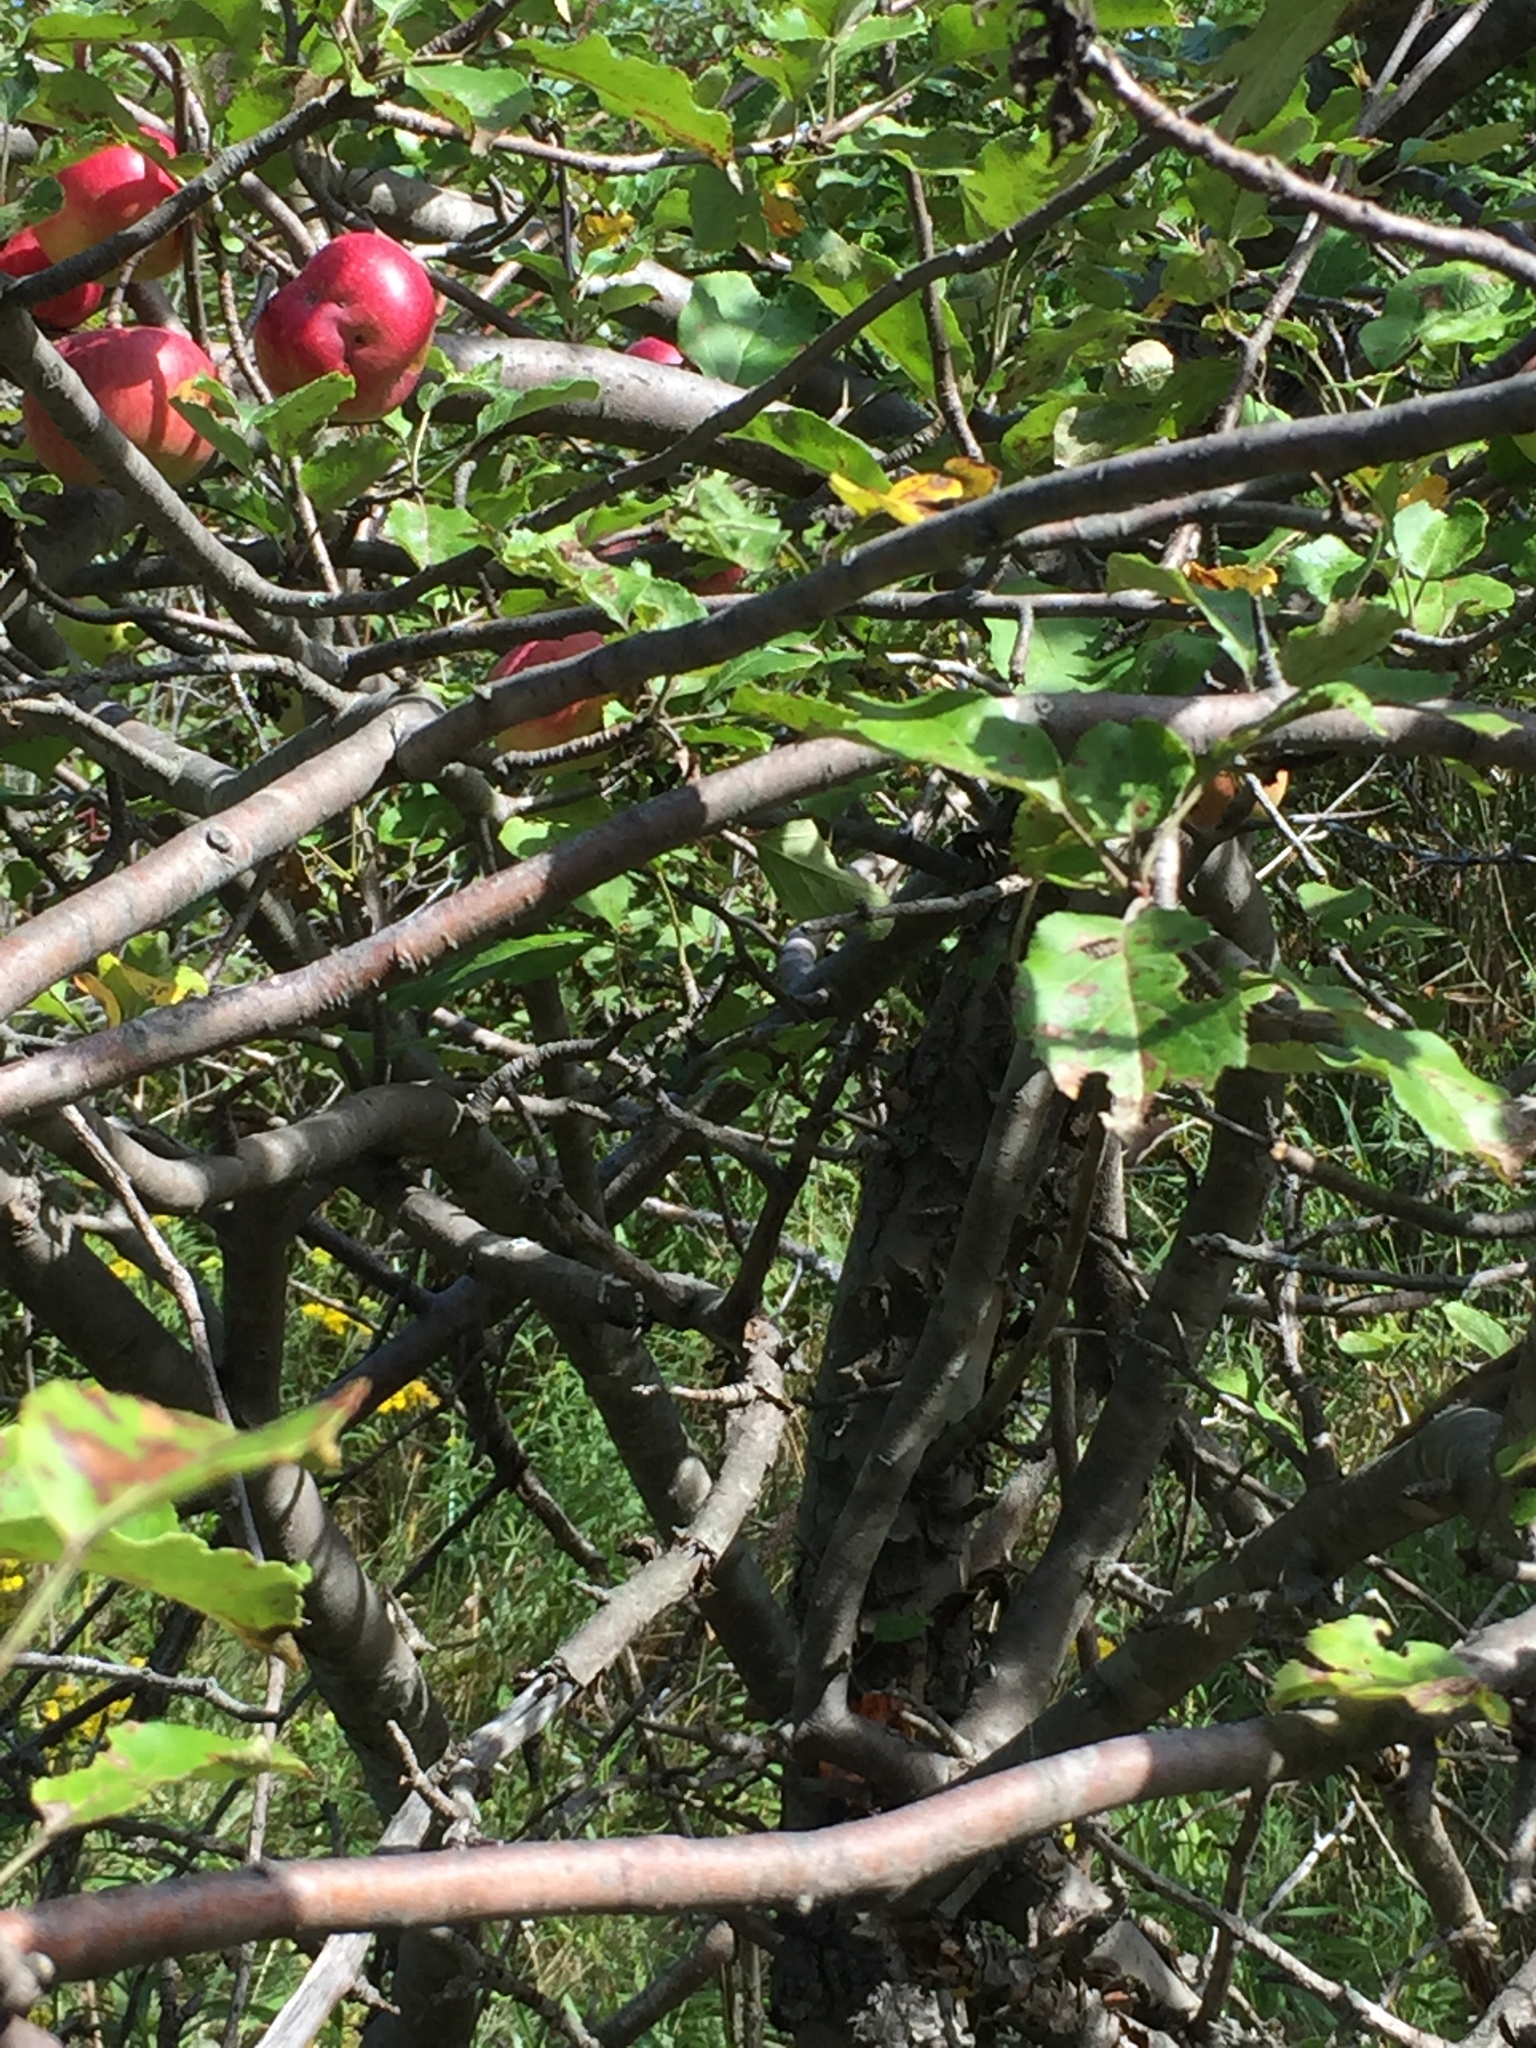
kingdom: Plantae
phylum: Tracheophyta
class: Magnoliopsida
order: Rosales
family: Rosaceae
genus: Malus
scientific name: Malus domestica
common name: Apple
